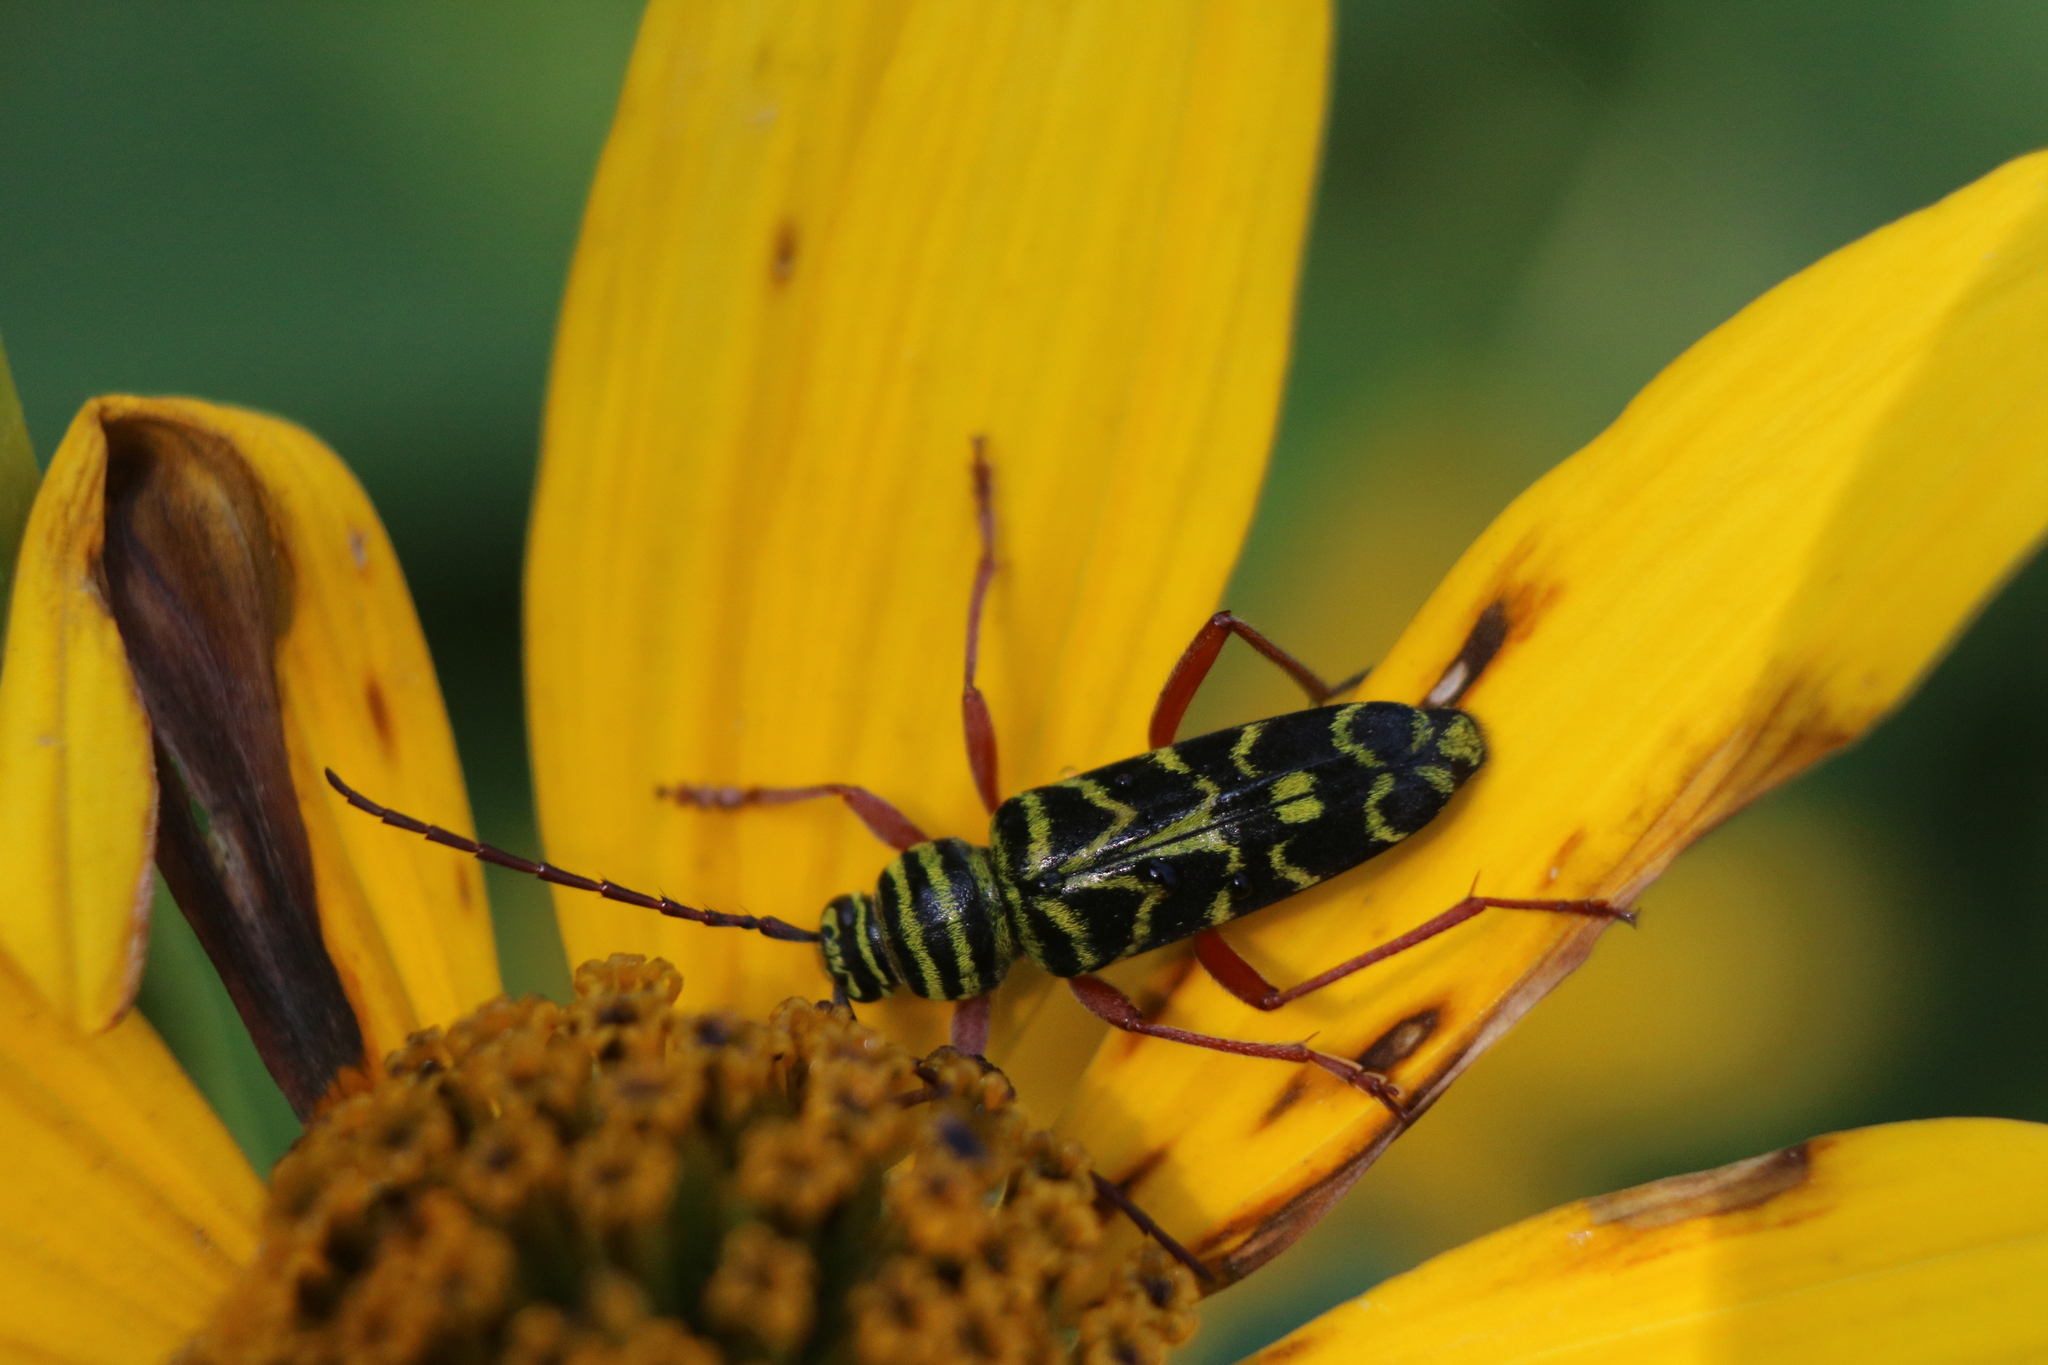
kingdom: Animalia
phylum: Arthropoda
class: Insecta
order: Coleoptera
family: Cerambycidae
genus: Megacyllene
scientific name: Megacyllene robiniae
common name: Locust borer
